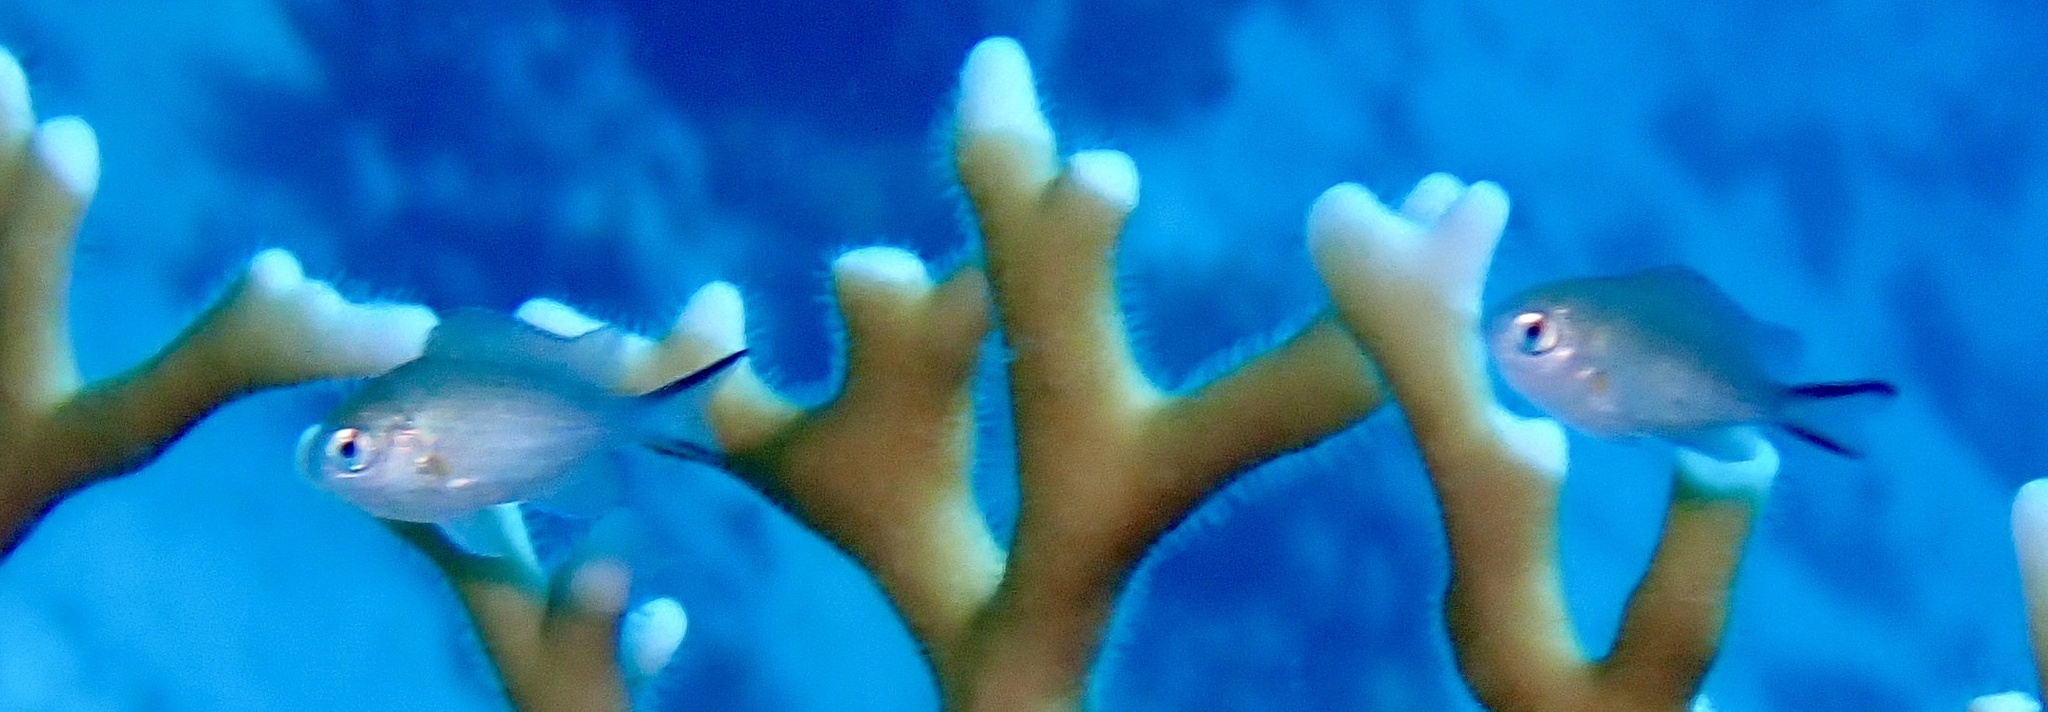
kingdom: Animalia
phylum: Chordata
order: Perciformes
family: Pomacentridae
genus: Chromis
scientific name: Chromis flavaxilla
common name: Arabian chromis
